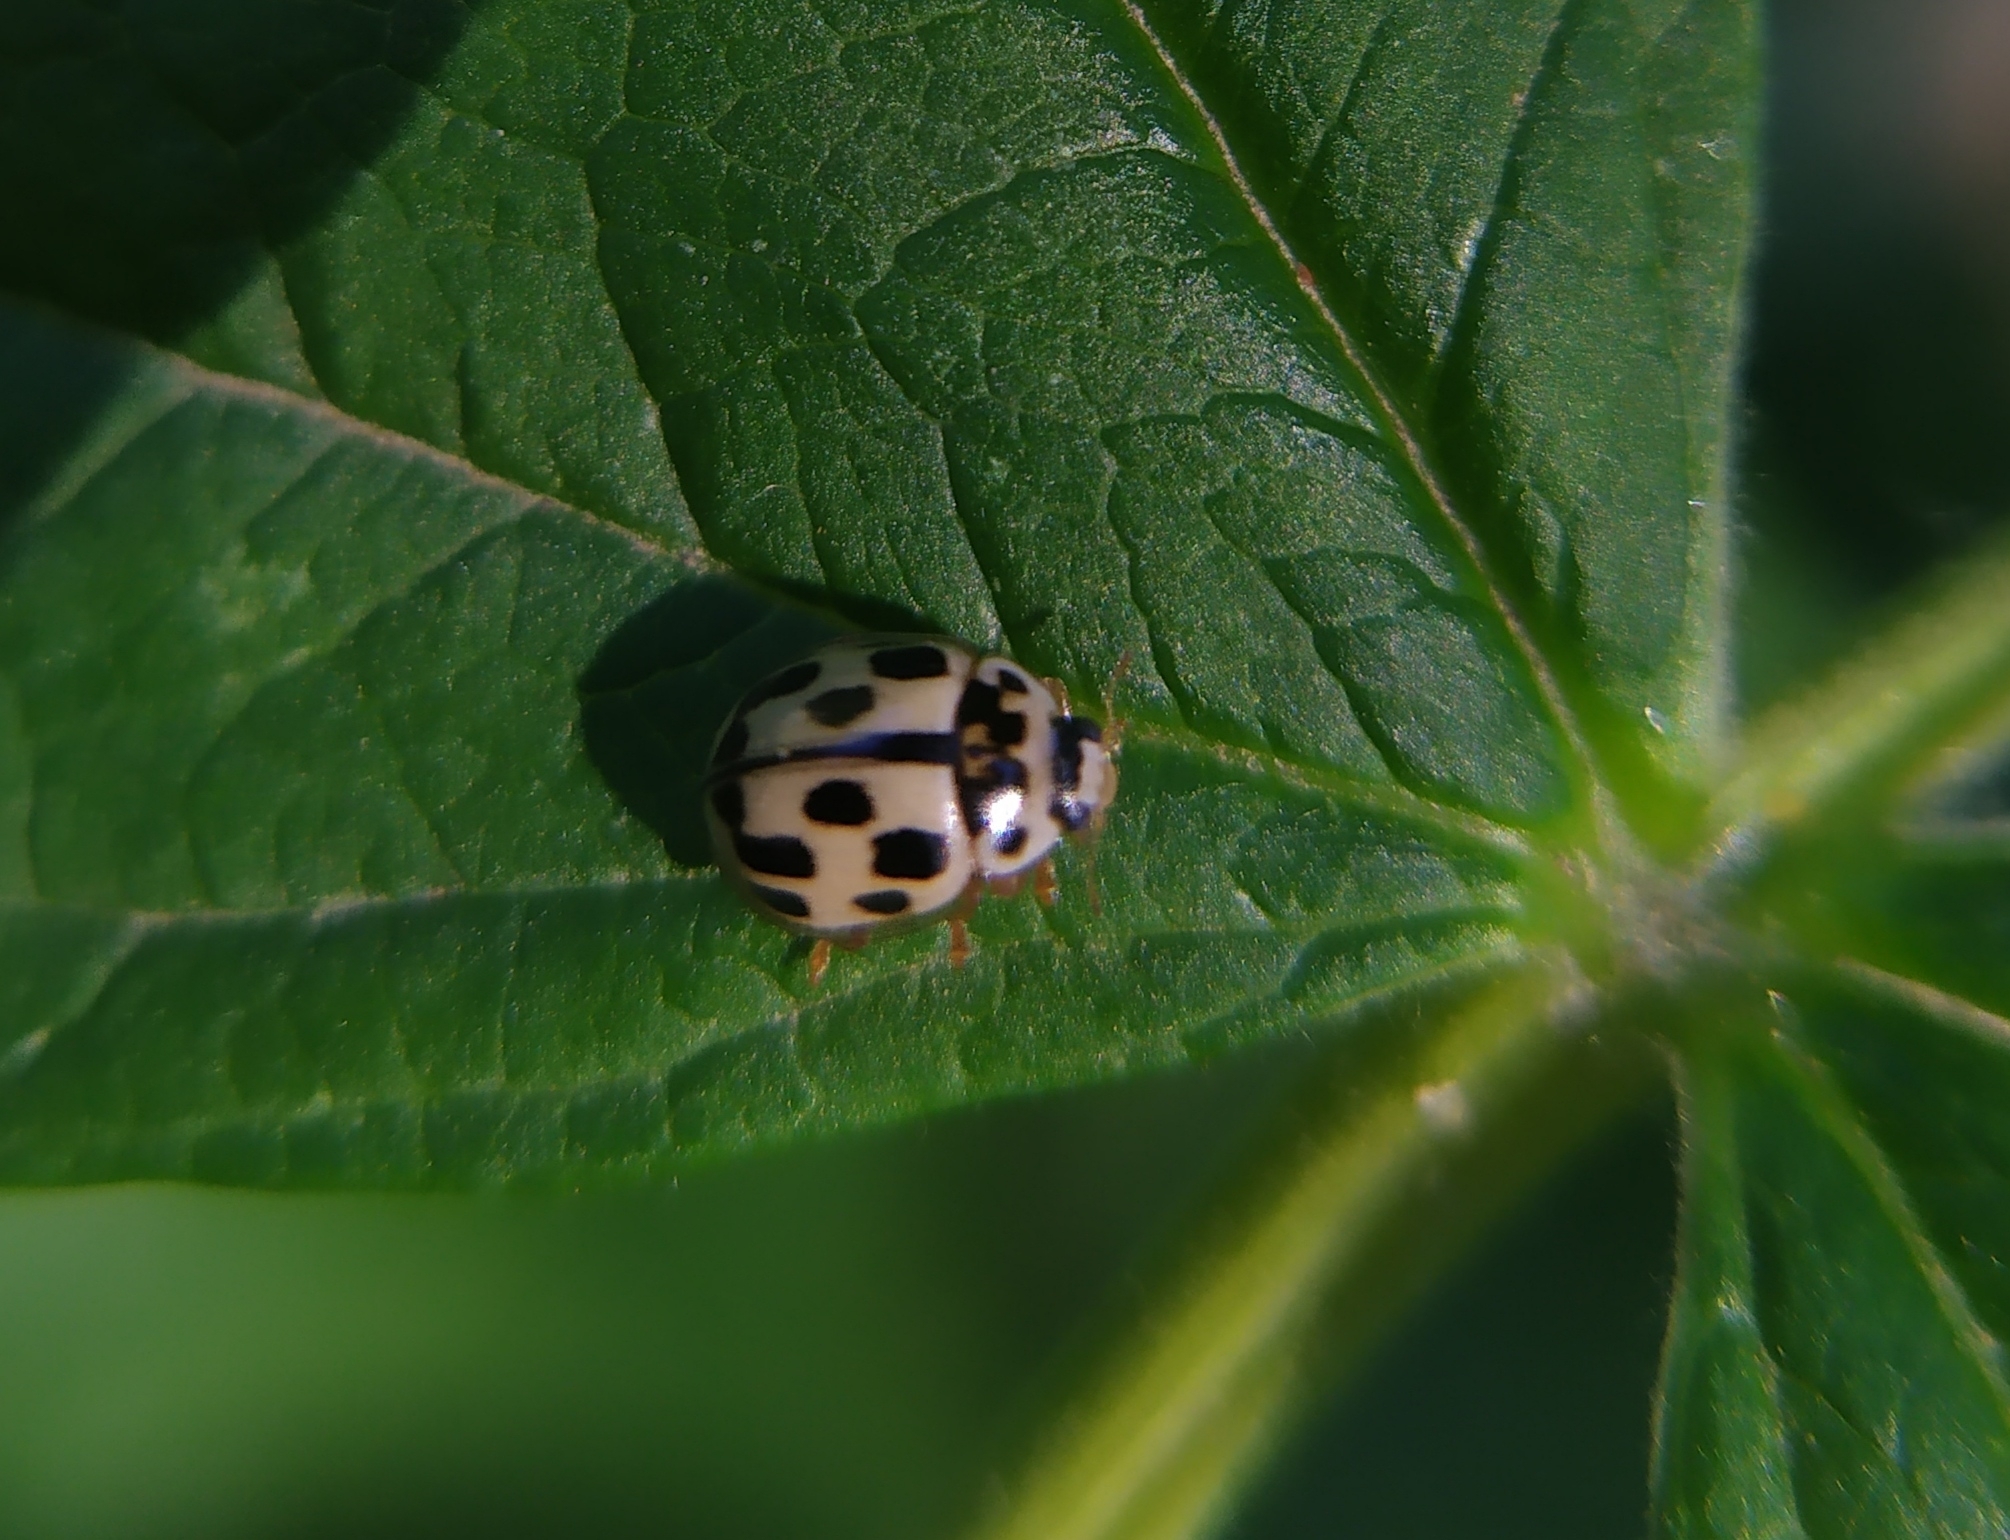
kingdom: Animalia
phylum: Arthropoda
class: Insecta
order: Coleoptera
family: Coccinellidae
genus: Propylaea
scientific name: Propylaea quatuordecimpunctata
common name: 14-spotted ladybird beetle
